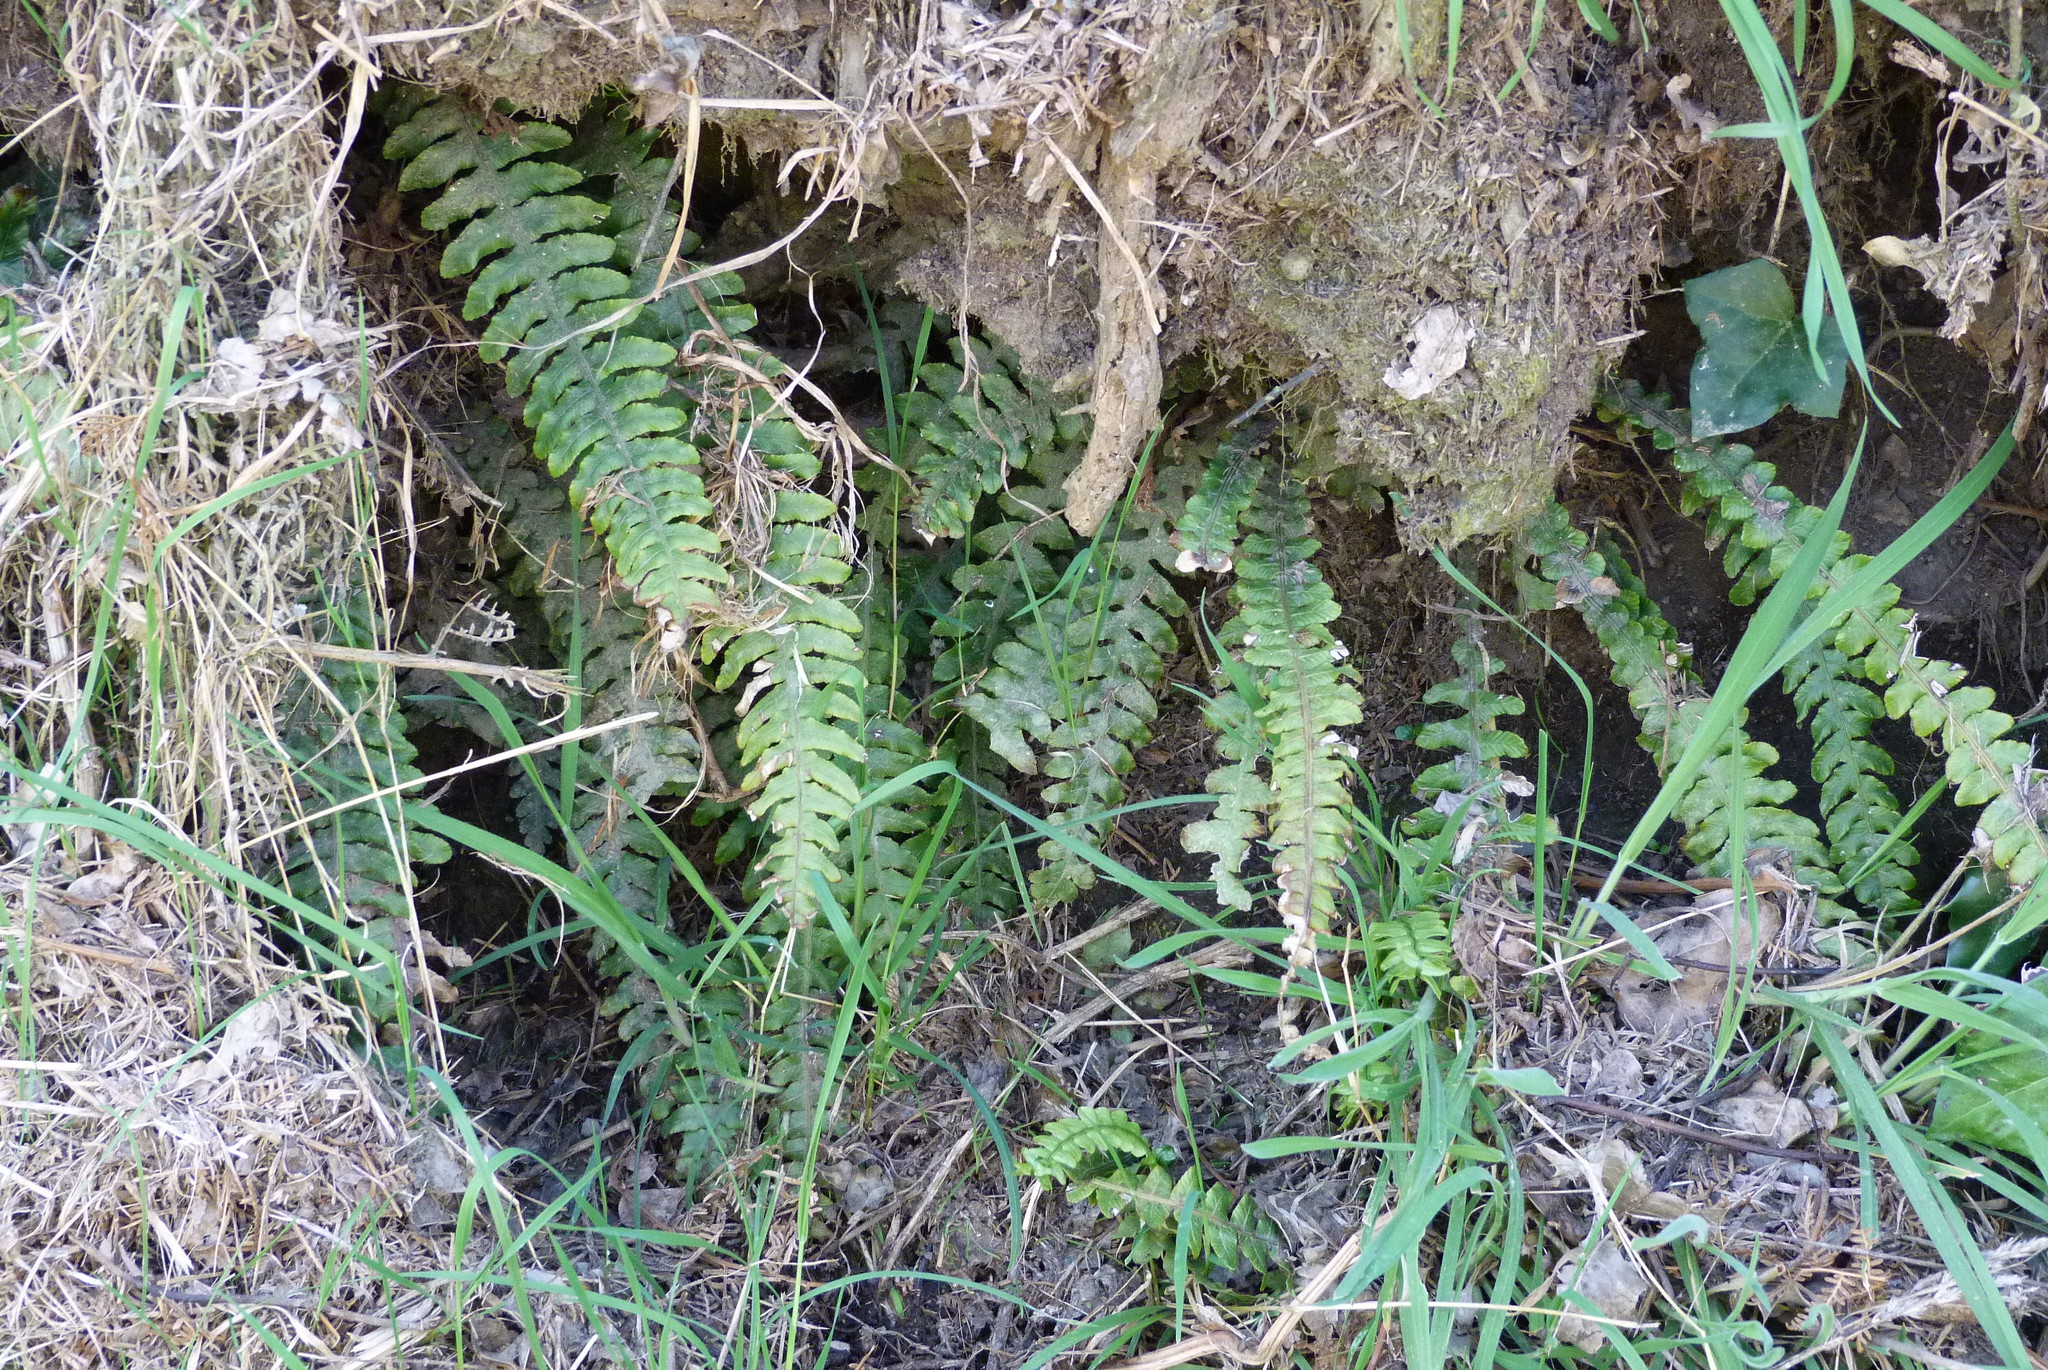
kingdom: Plantae
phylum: Tracheophyta
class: Polypodiopsida
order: Polypodiales
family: Blechnaceae
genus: Austroblechnum
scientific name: Austroblechnum lanceolatum
